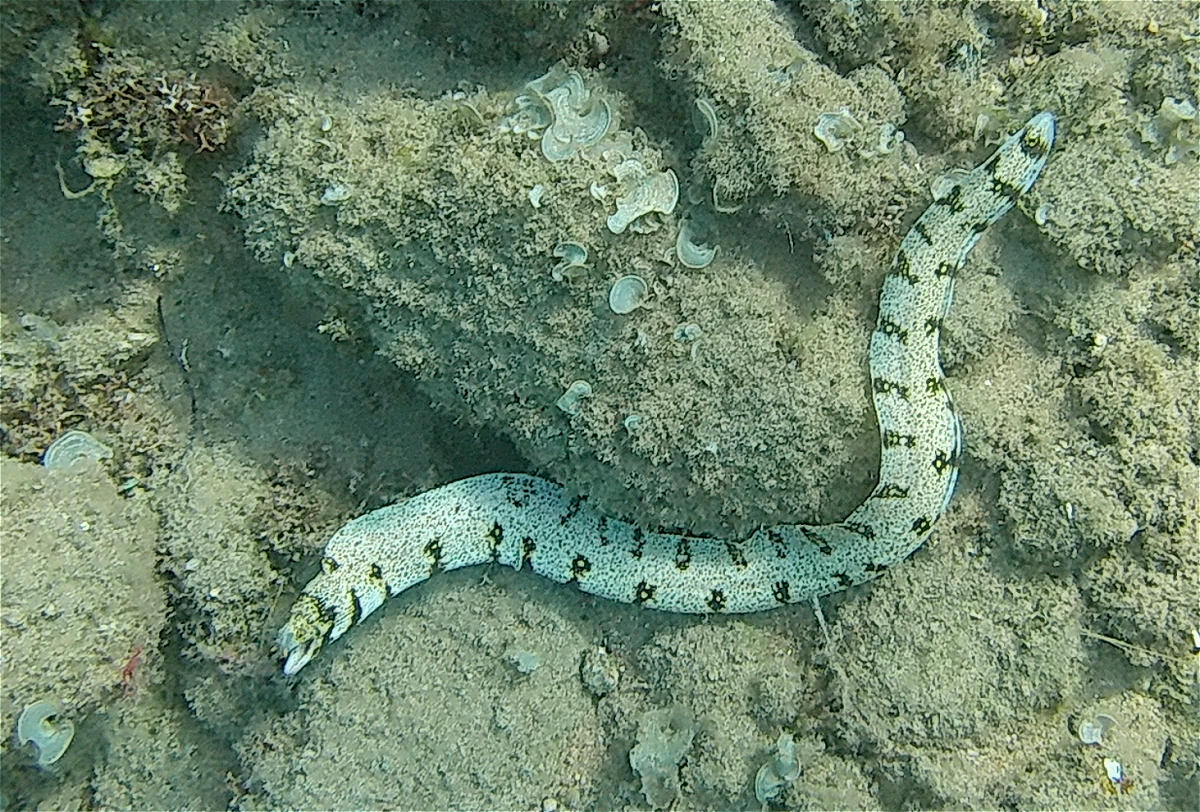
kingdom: Animalia
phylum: Chordata
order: Anguilliformes
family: Muraenidae
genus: Echidna
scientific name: Echidna nebulosa
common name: Snowflake moray
